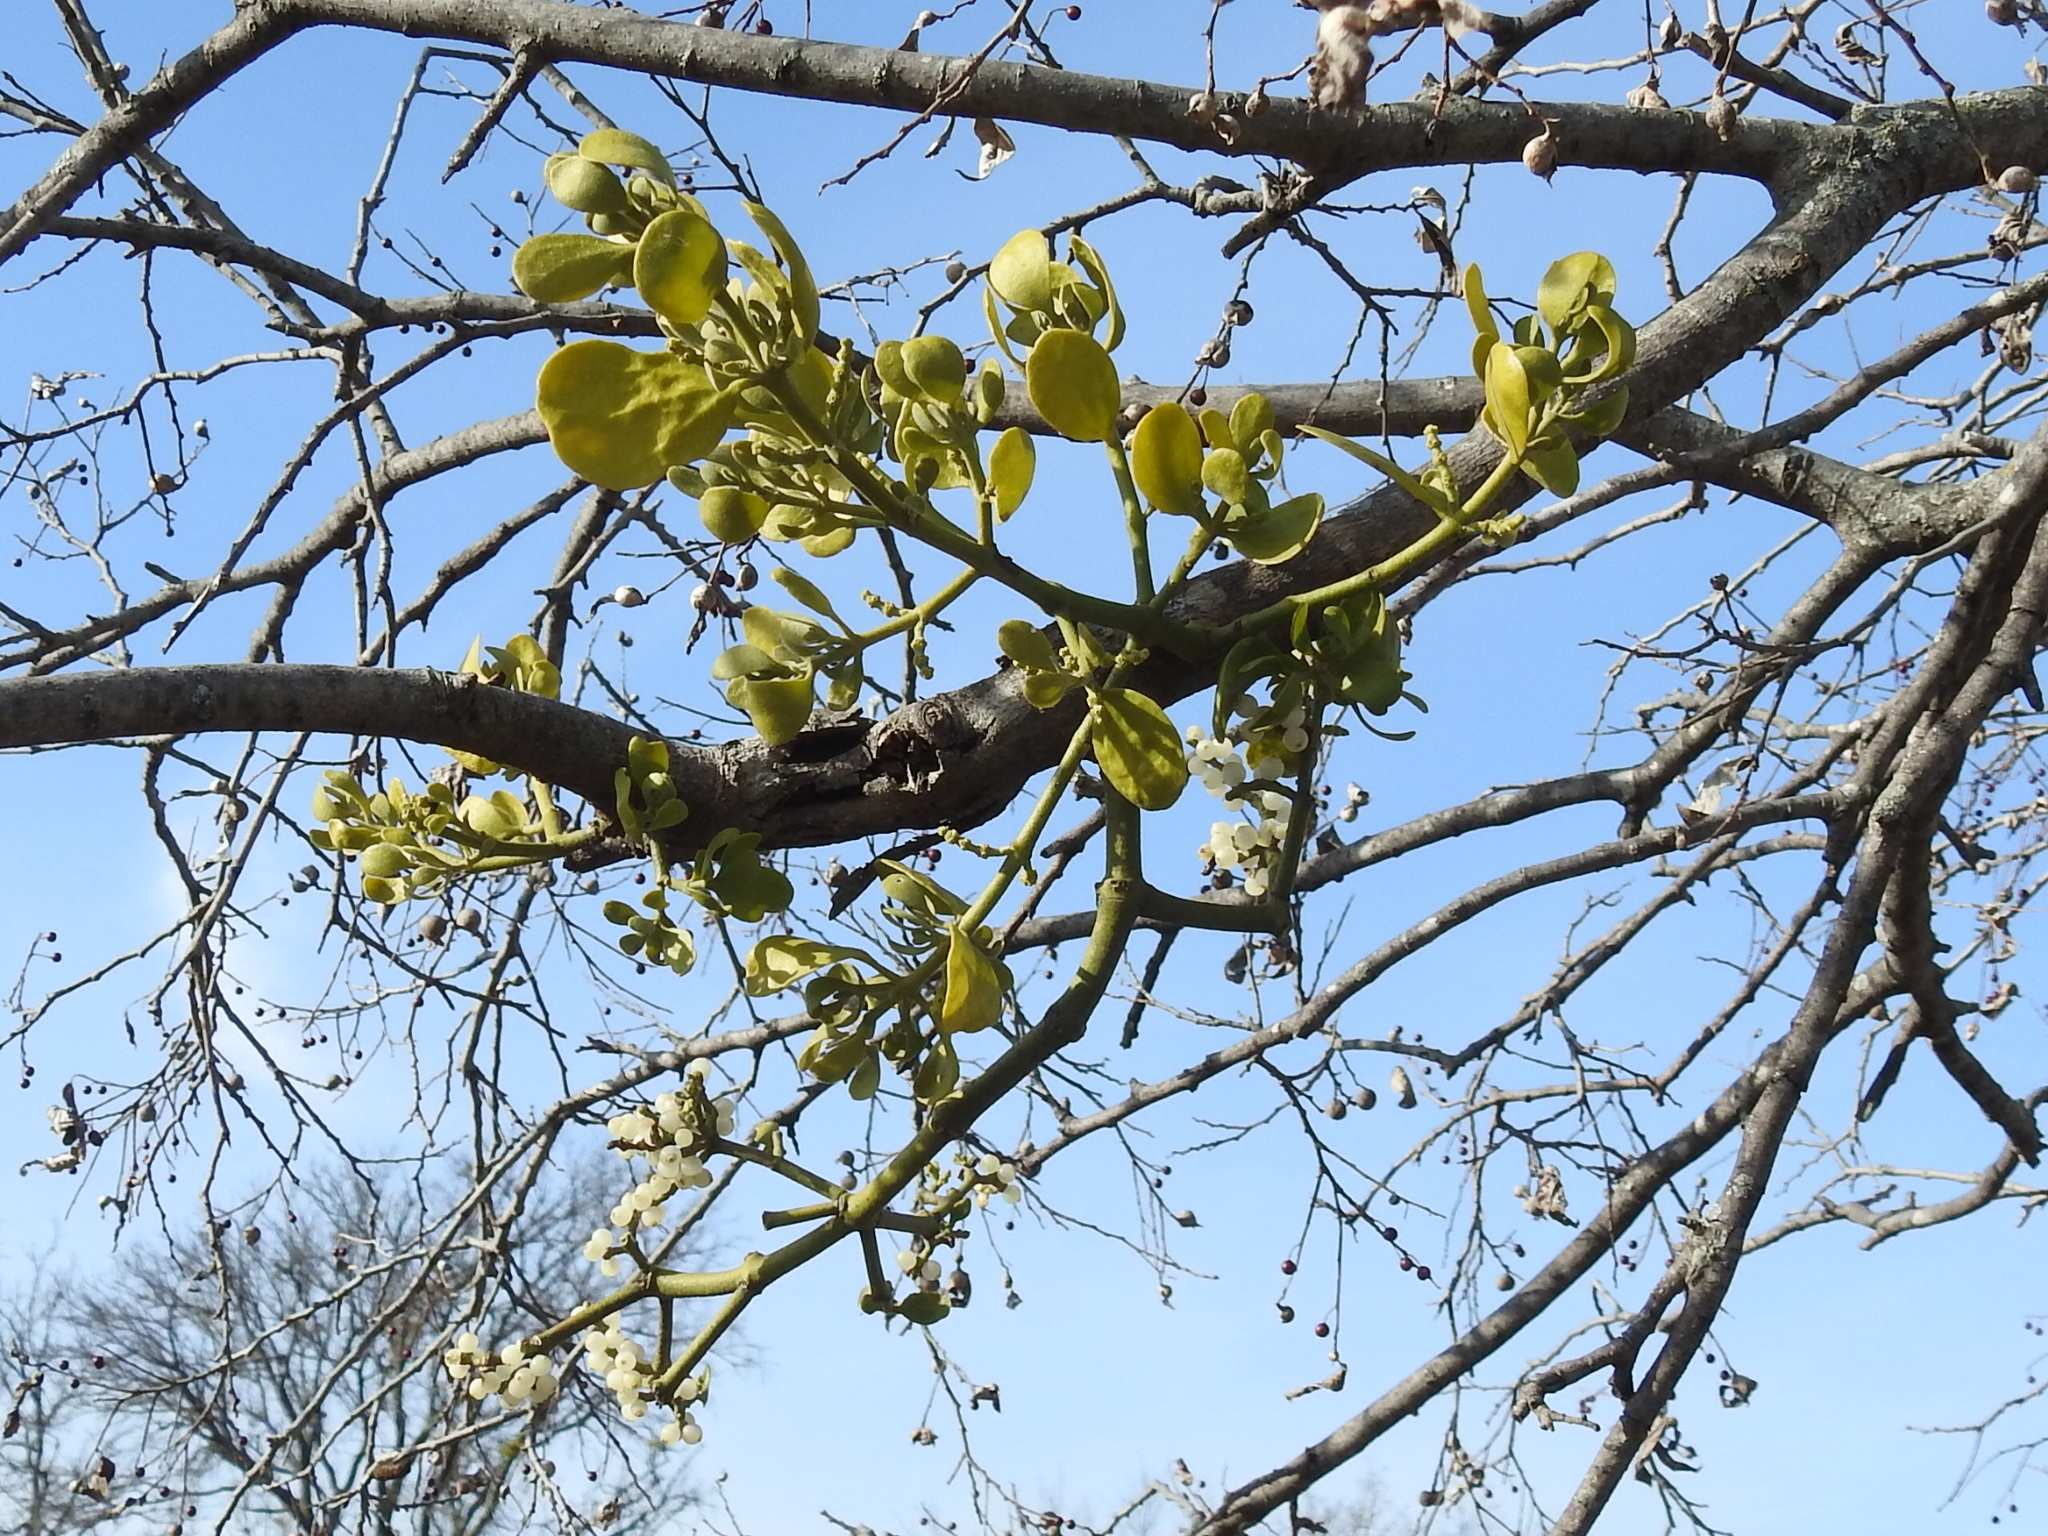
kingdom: Plantae
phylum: Tracheophyta
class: Magnoliopsida
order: Santalales
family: Viscaceae
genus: Phoradendron
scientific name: Phoradendron leucarpum
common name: Pacific mistletoe
